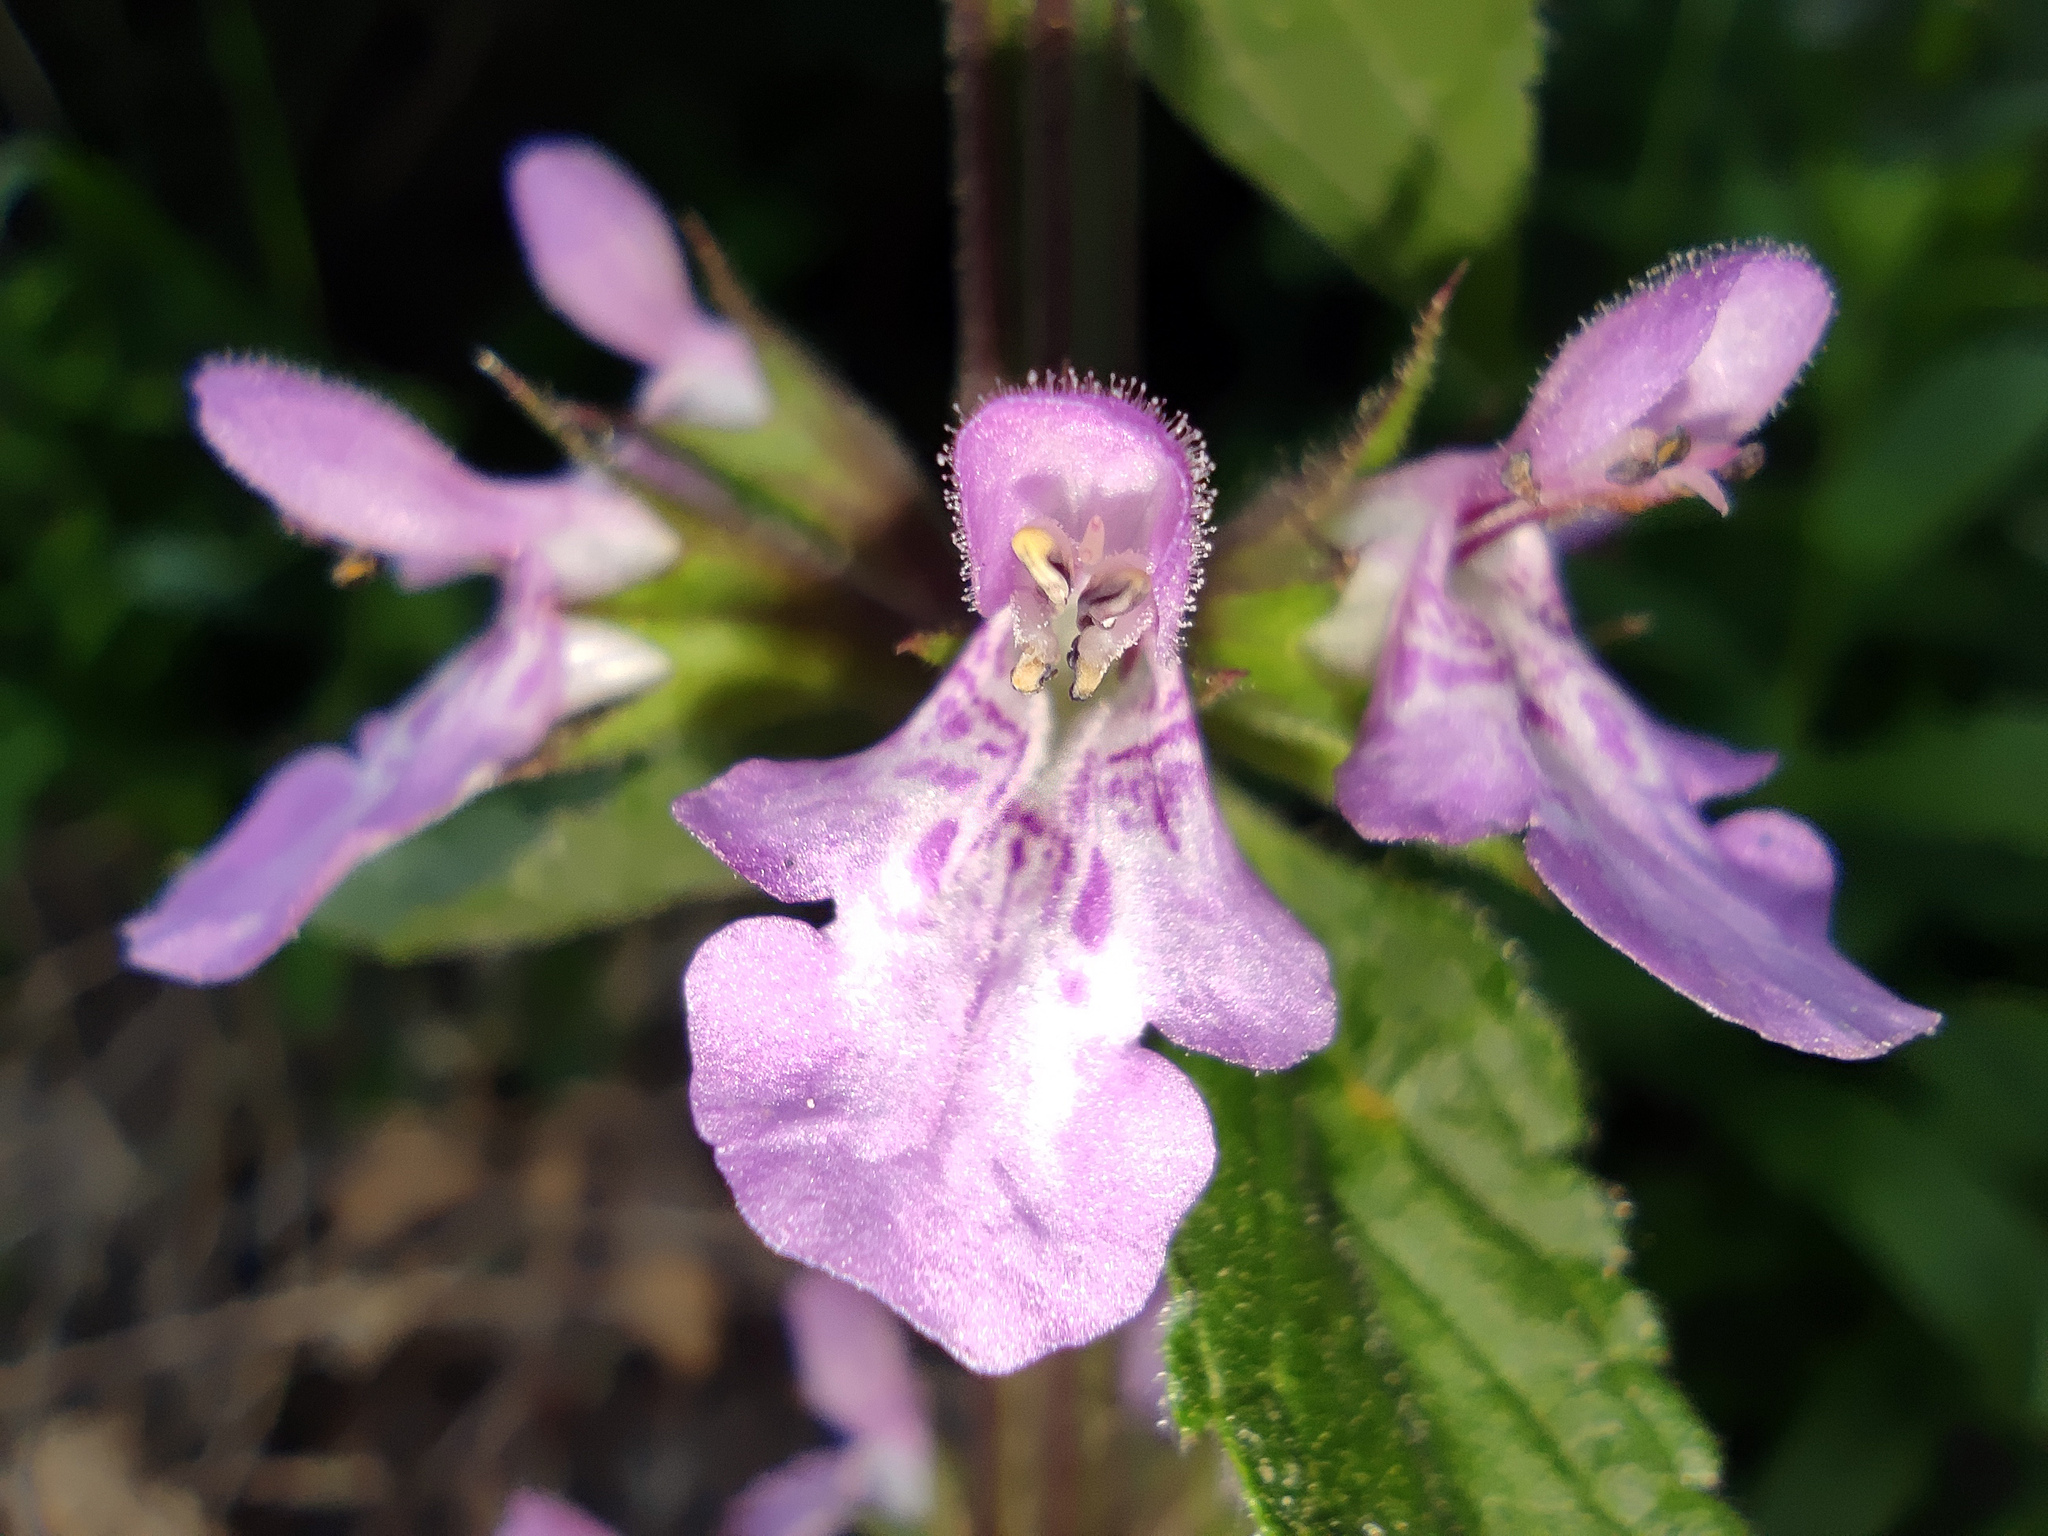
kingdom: Plantae
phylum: Tracheophyta
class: Magnoliopsida
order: Lamiales
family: Lamiaceae
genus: Stachys
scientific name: Stachys palustris
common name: Marsh woundwort
